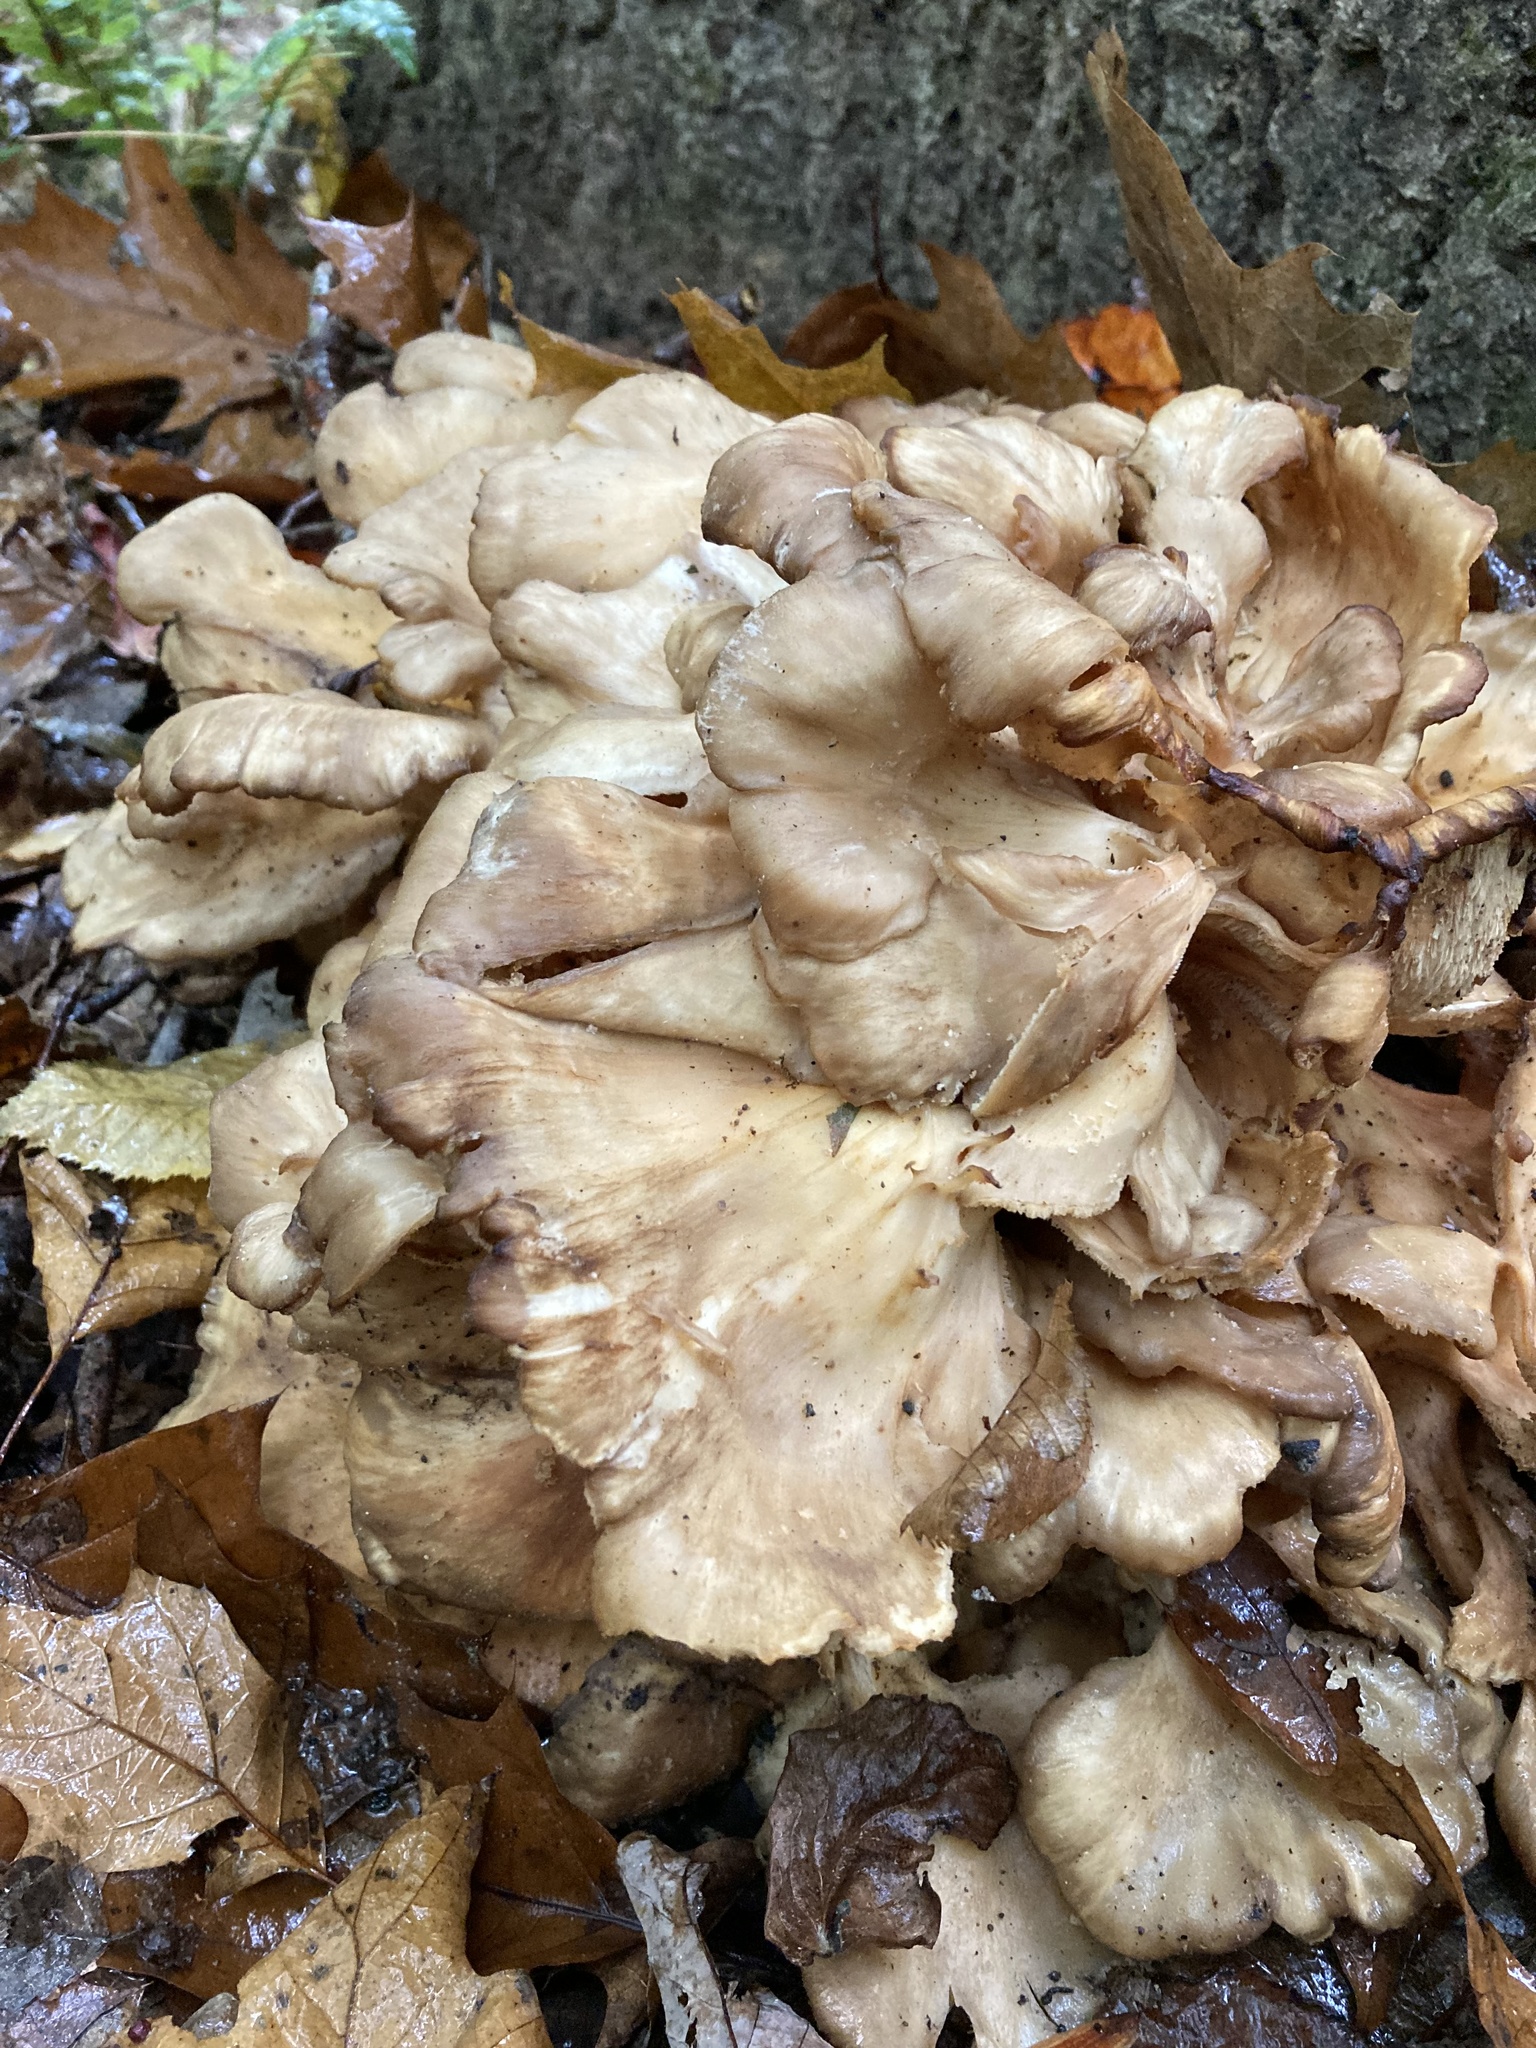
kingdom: Fungi
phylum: Basidiomycota
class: Agaricomycetes
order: Polyporales
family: Grifolaceae
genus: Grifola
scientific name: Grifola frondosa
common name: Hen of the woods
